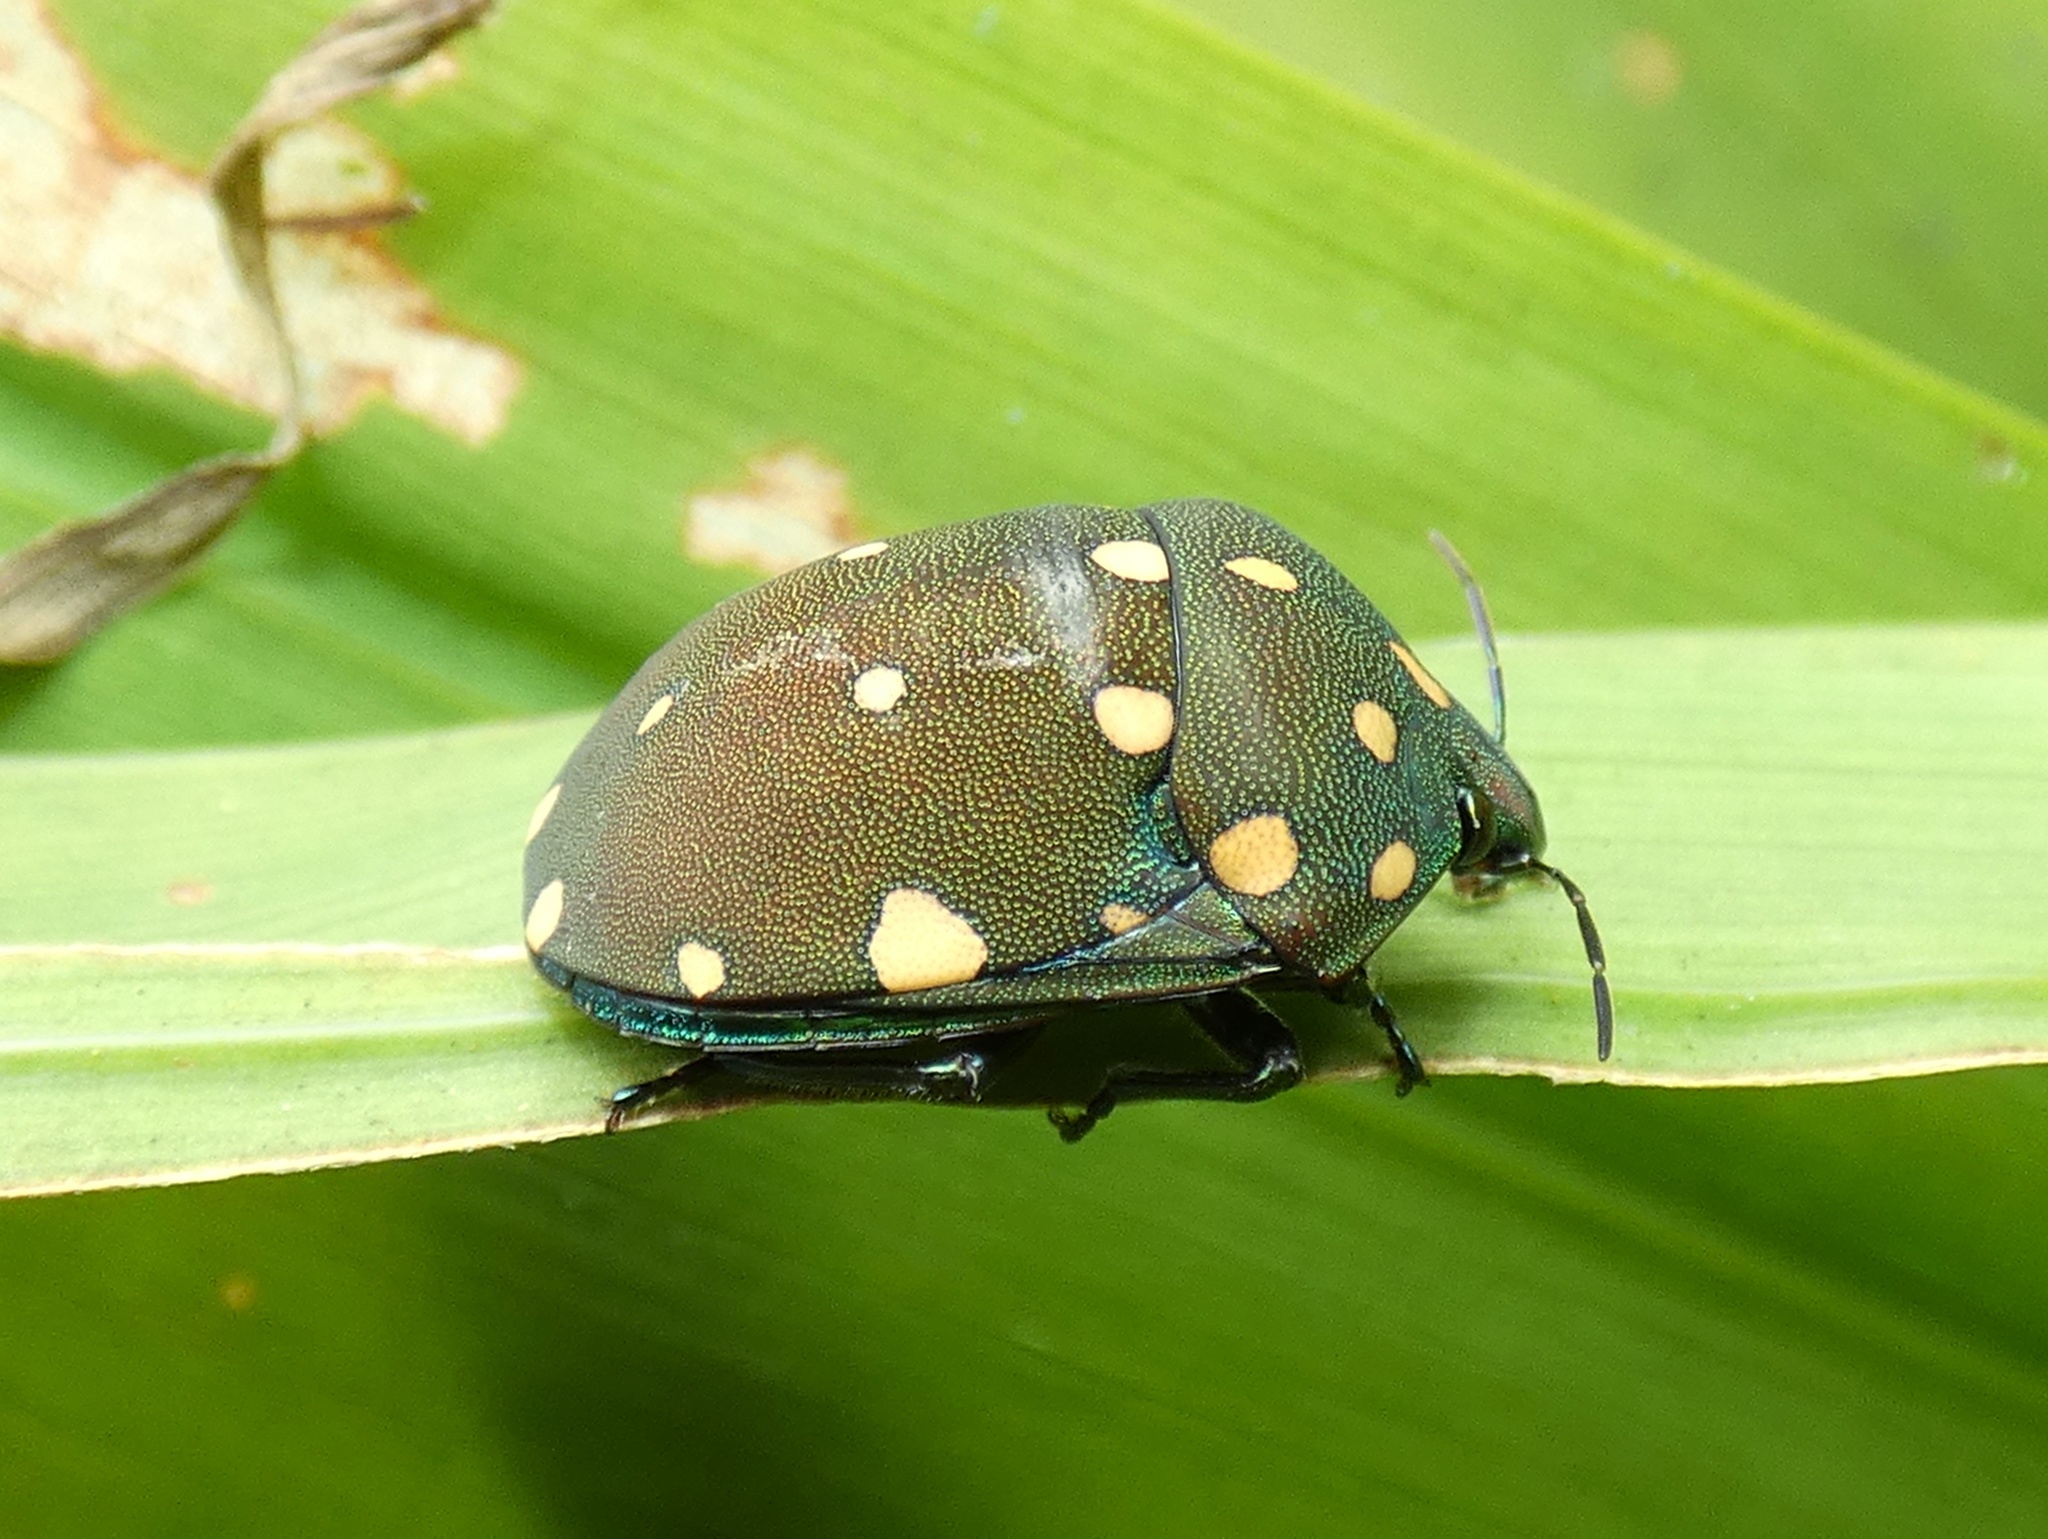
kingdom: Animalia
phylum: Arthropoda
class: Insecta
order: Hemiptera
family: Scutelleridae
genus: Pachycoris
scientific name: Pachycoris torridus
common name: Torrid jewel bug
